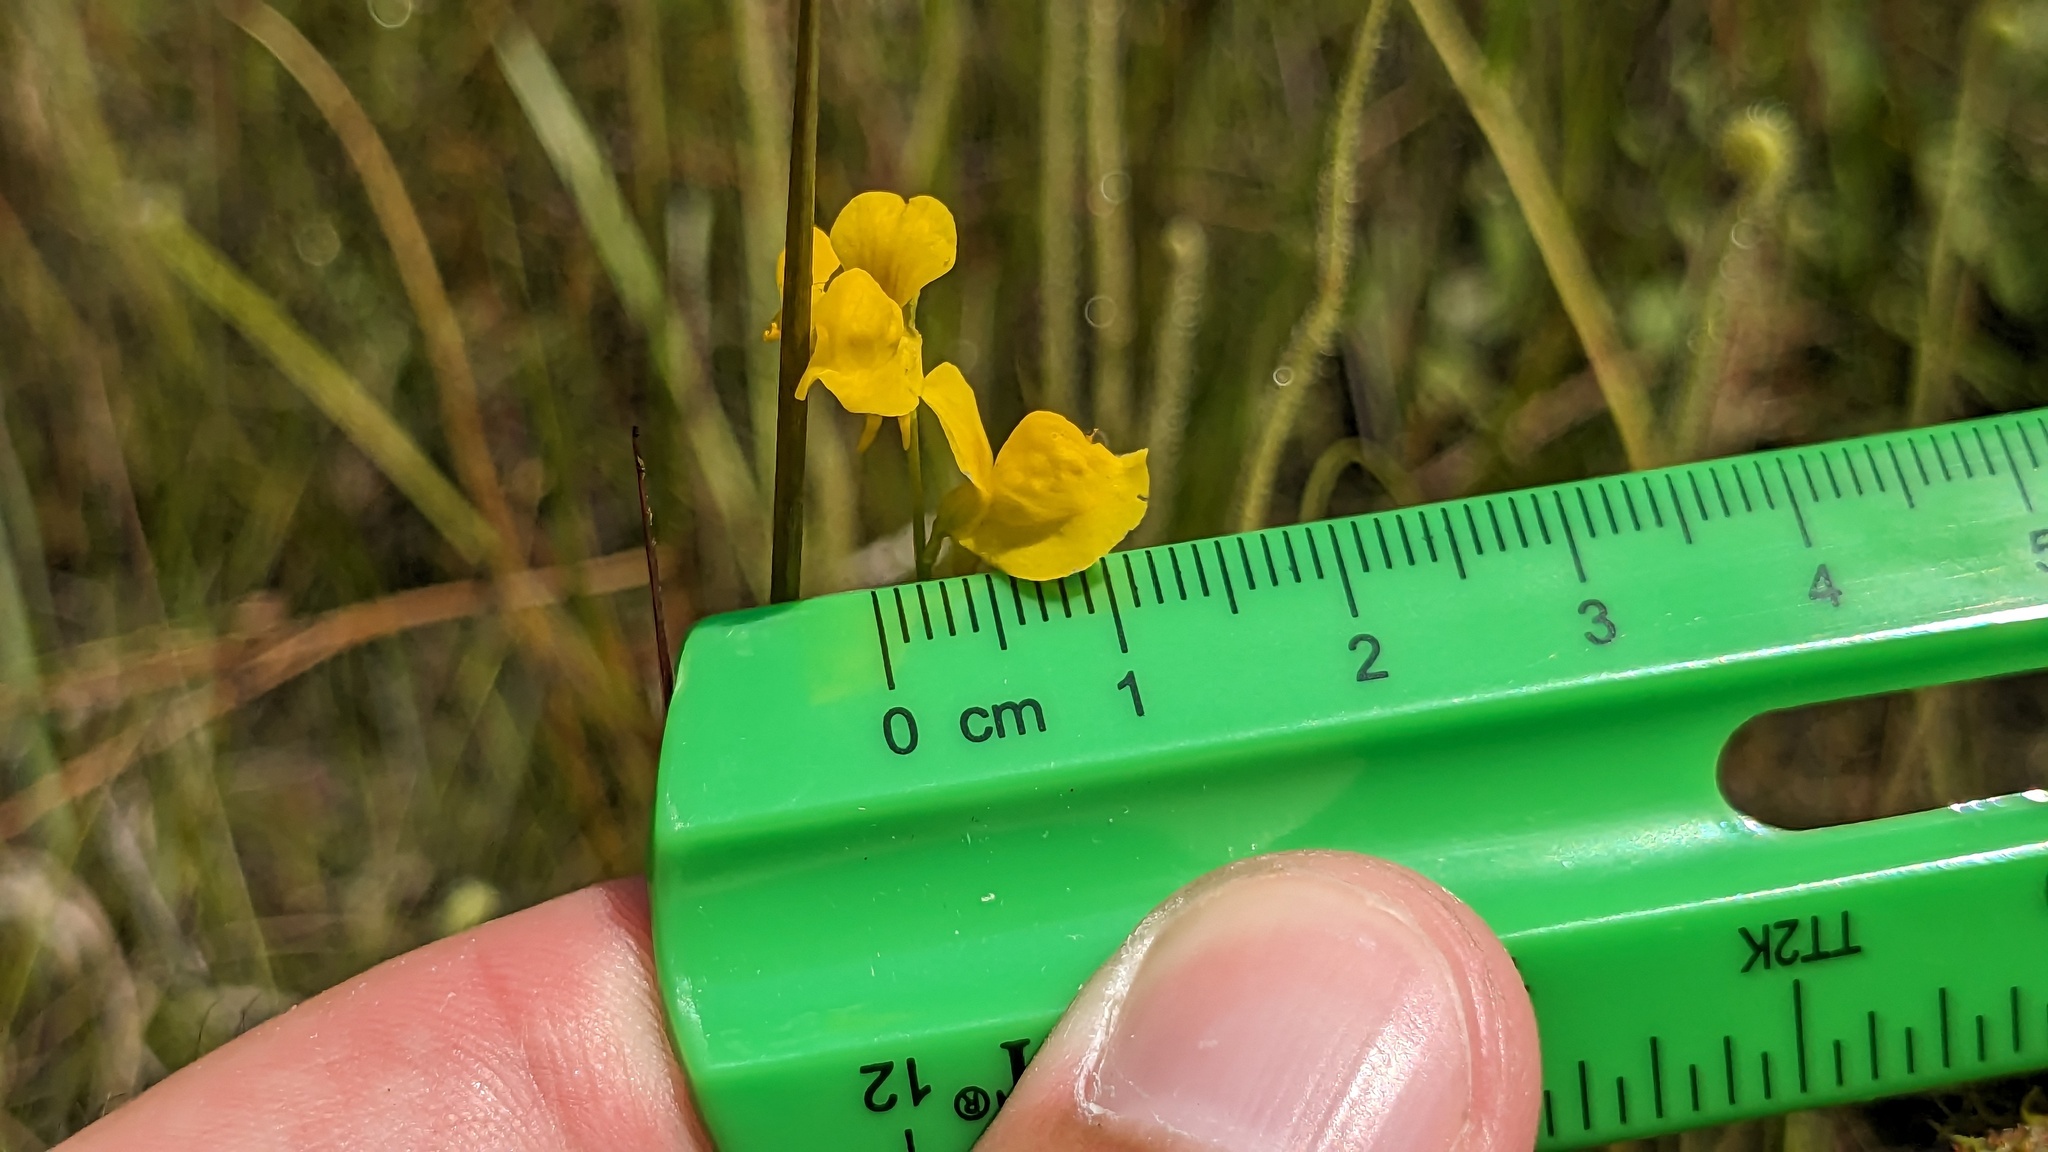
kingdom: Plantae
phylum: Tracheophyta
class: Magnoliopsida
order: Lamiales
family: Lentibulariaceae
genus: Utricularia
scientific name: Utricularia juncea
